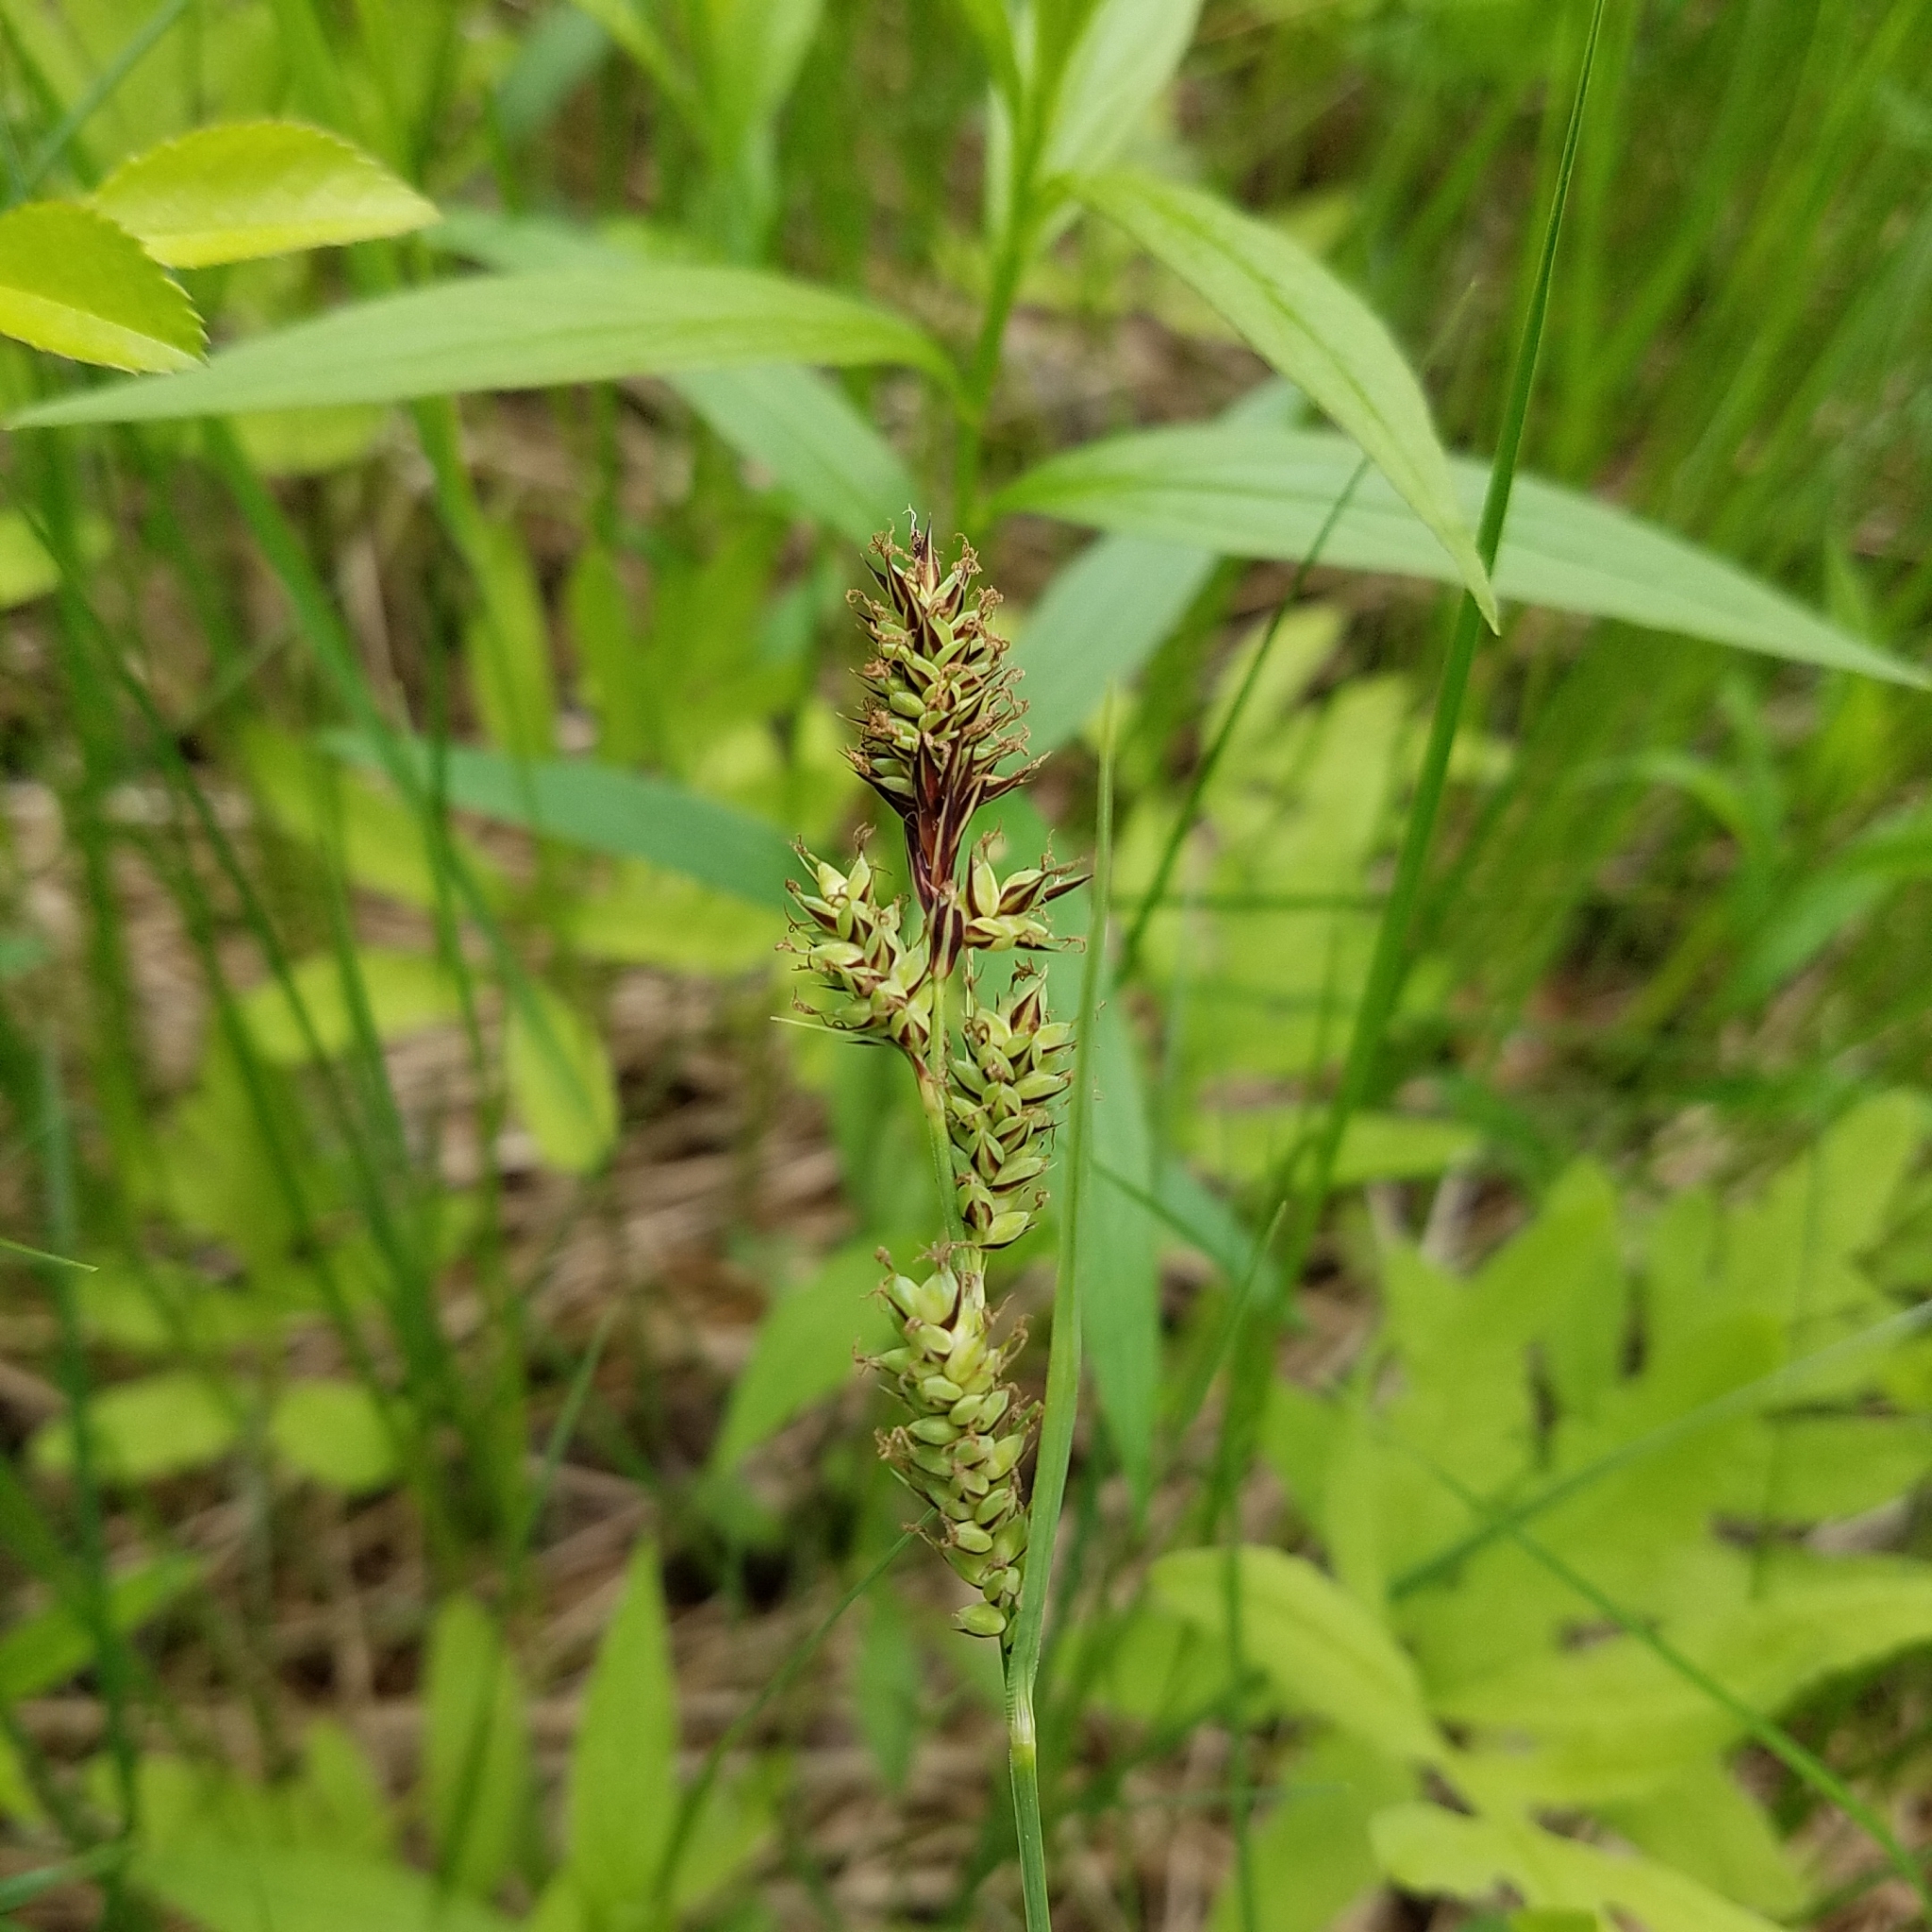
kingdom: Plantae
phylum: Tracheophyta
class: Liliopsida
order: Poales
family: Cyperaceae
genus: Carex
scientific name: Carex buxbaumii
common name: Club sedge
